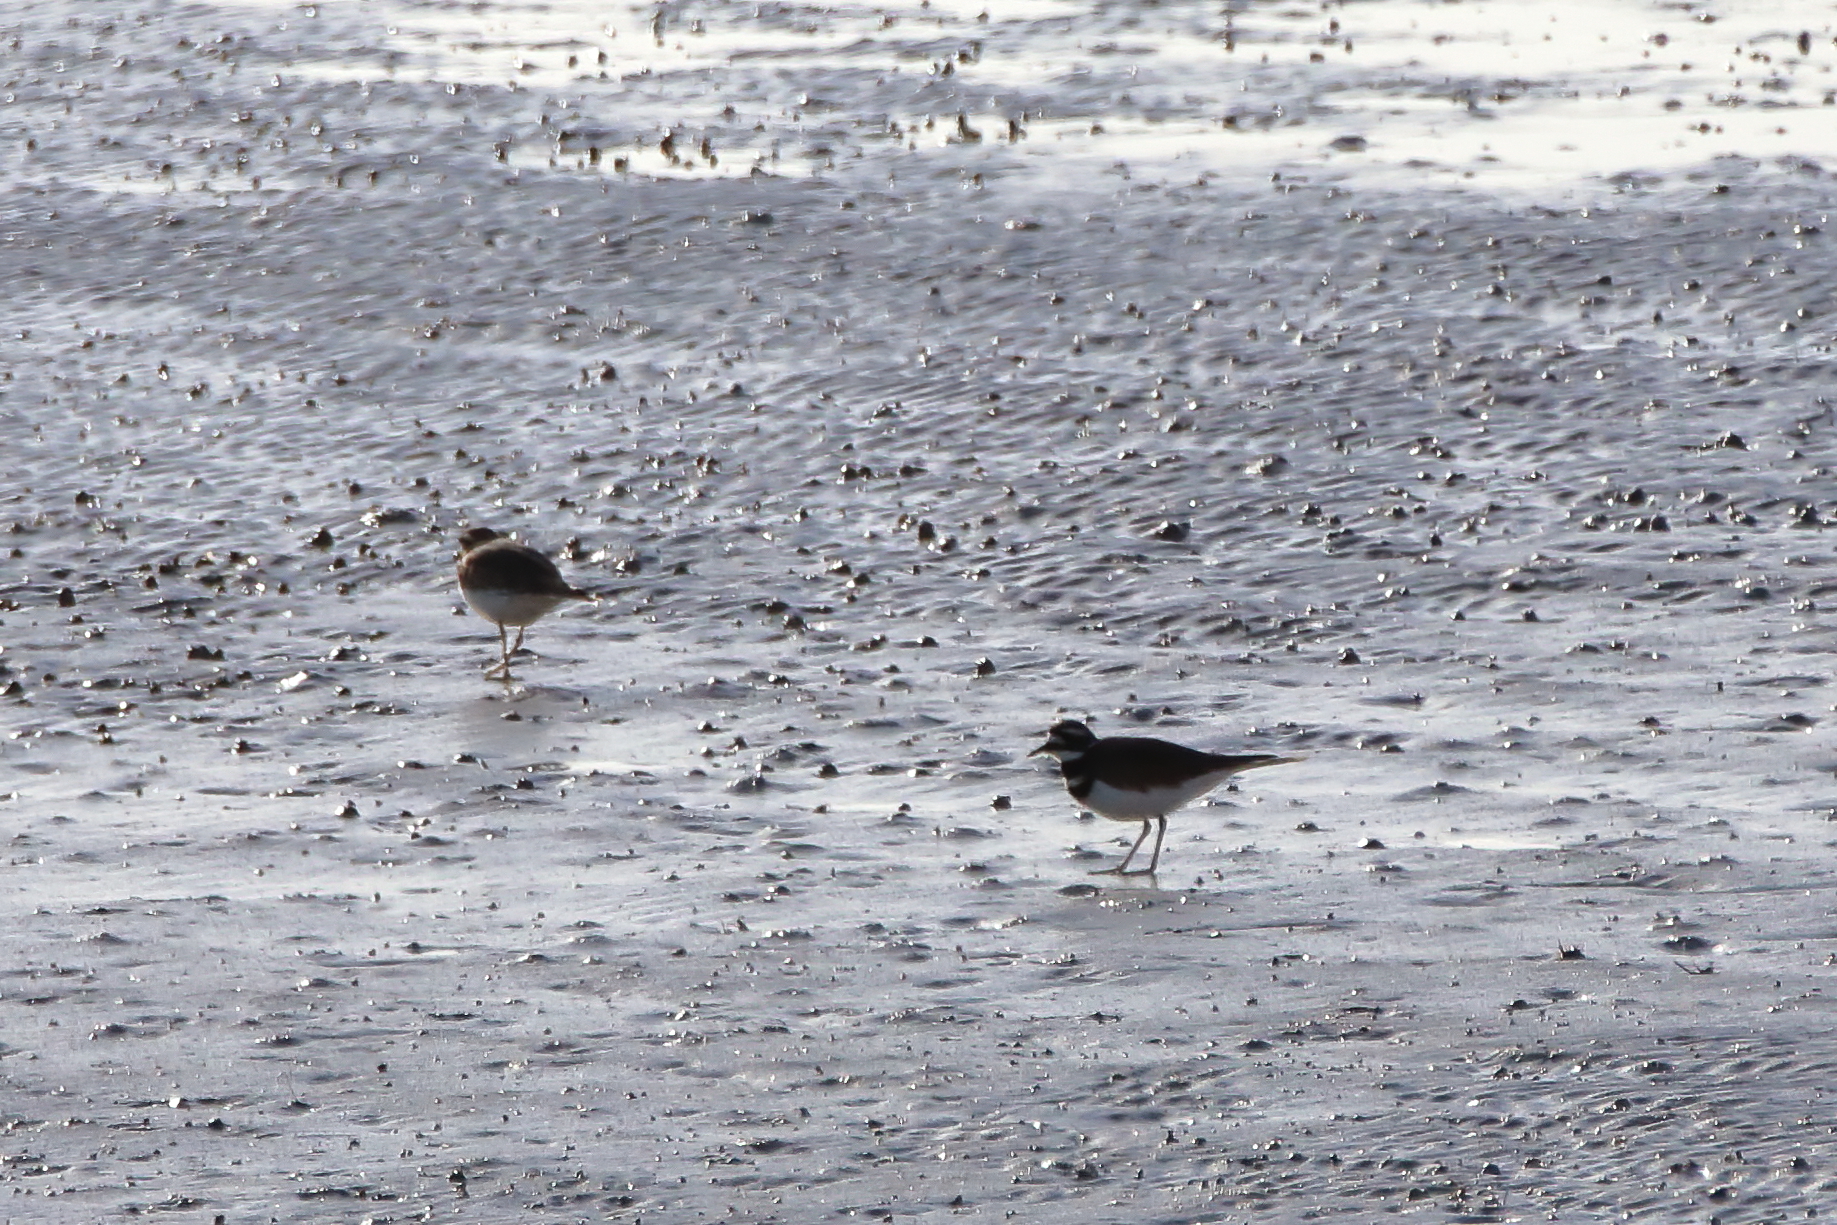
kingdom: Animalia
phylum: Chordata
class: Aves
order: Charadriiformes
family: Charadriidae
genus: Charadrius
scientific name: Charadrius vociferus
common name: Killdeer
